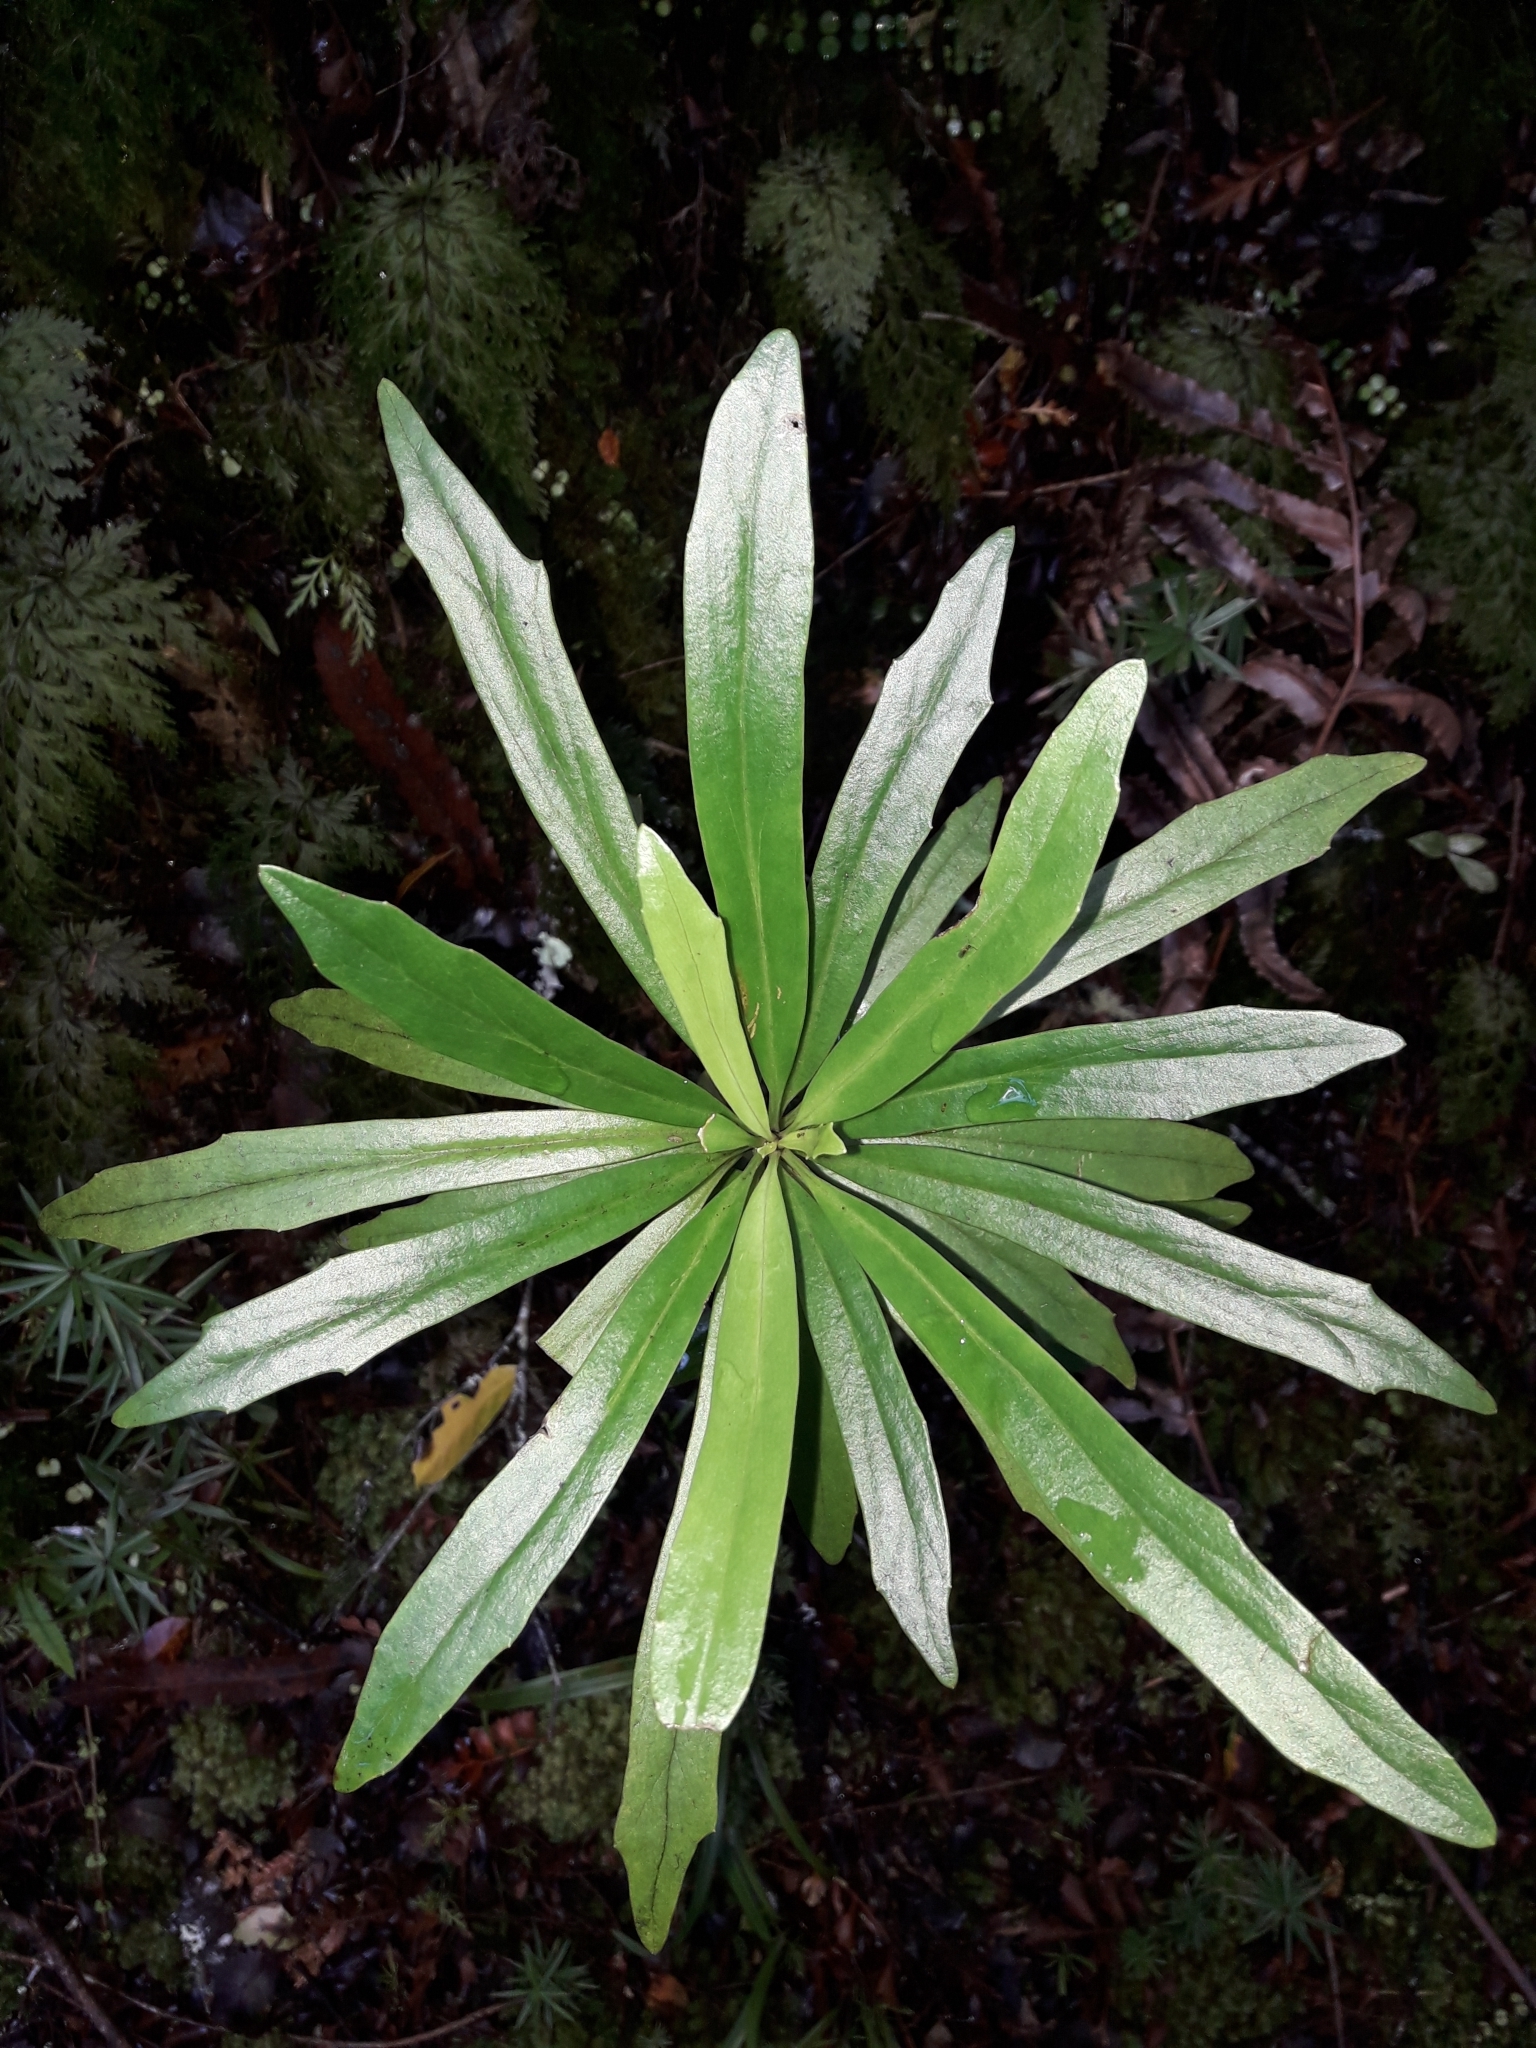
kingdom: Plantae
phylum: Tracheophyta
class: Magnoliopsida
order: Asterales
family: Asteraceae
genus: Brachyglottis
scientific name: Brachyglottis kirkii
